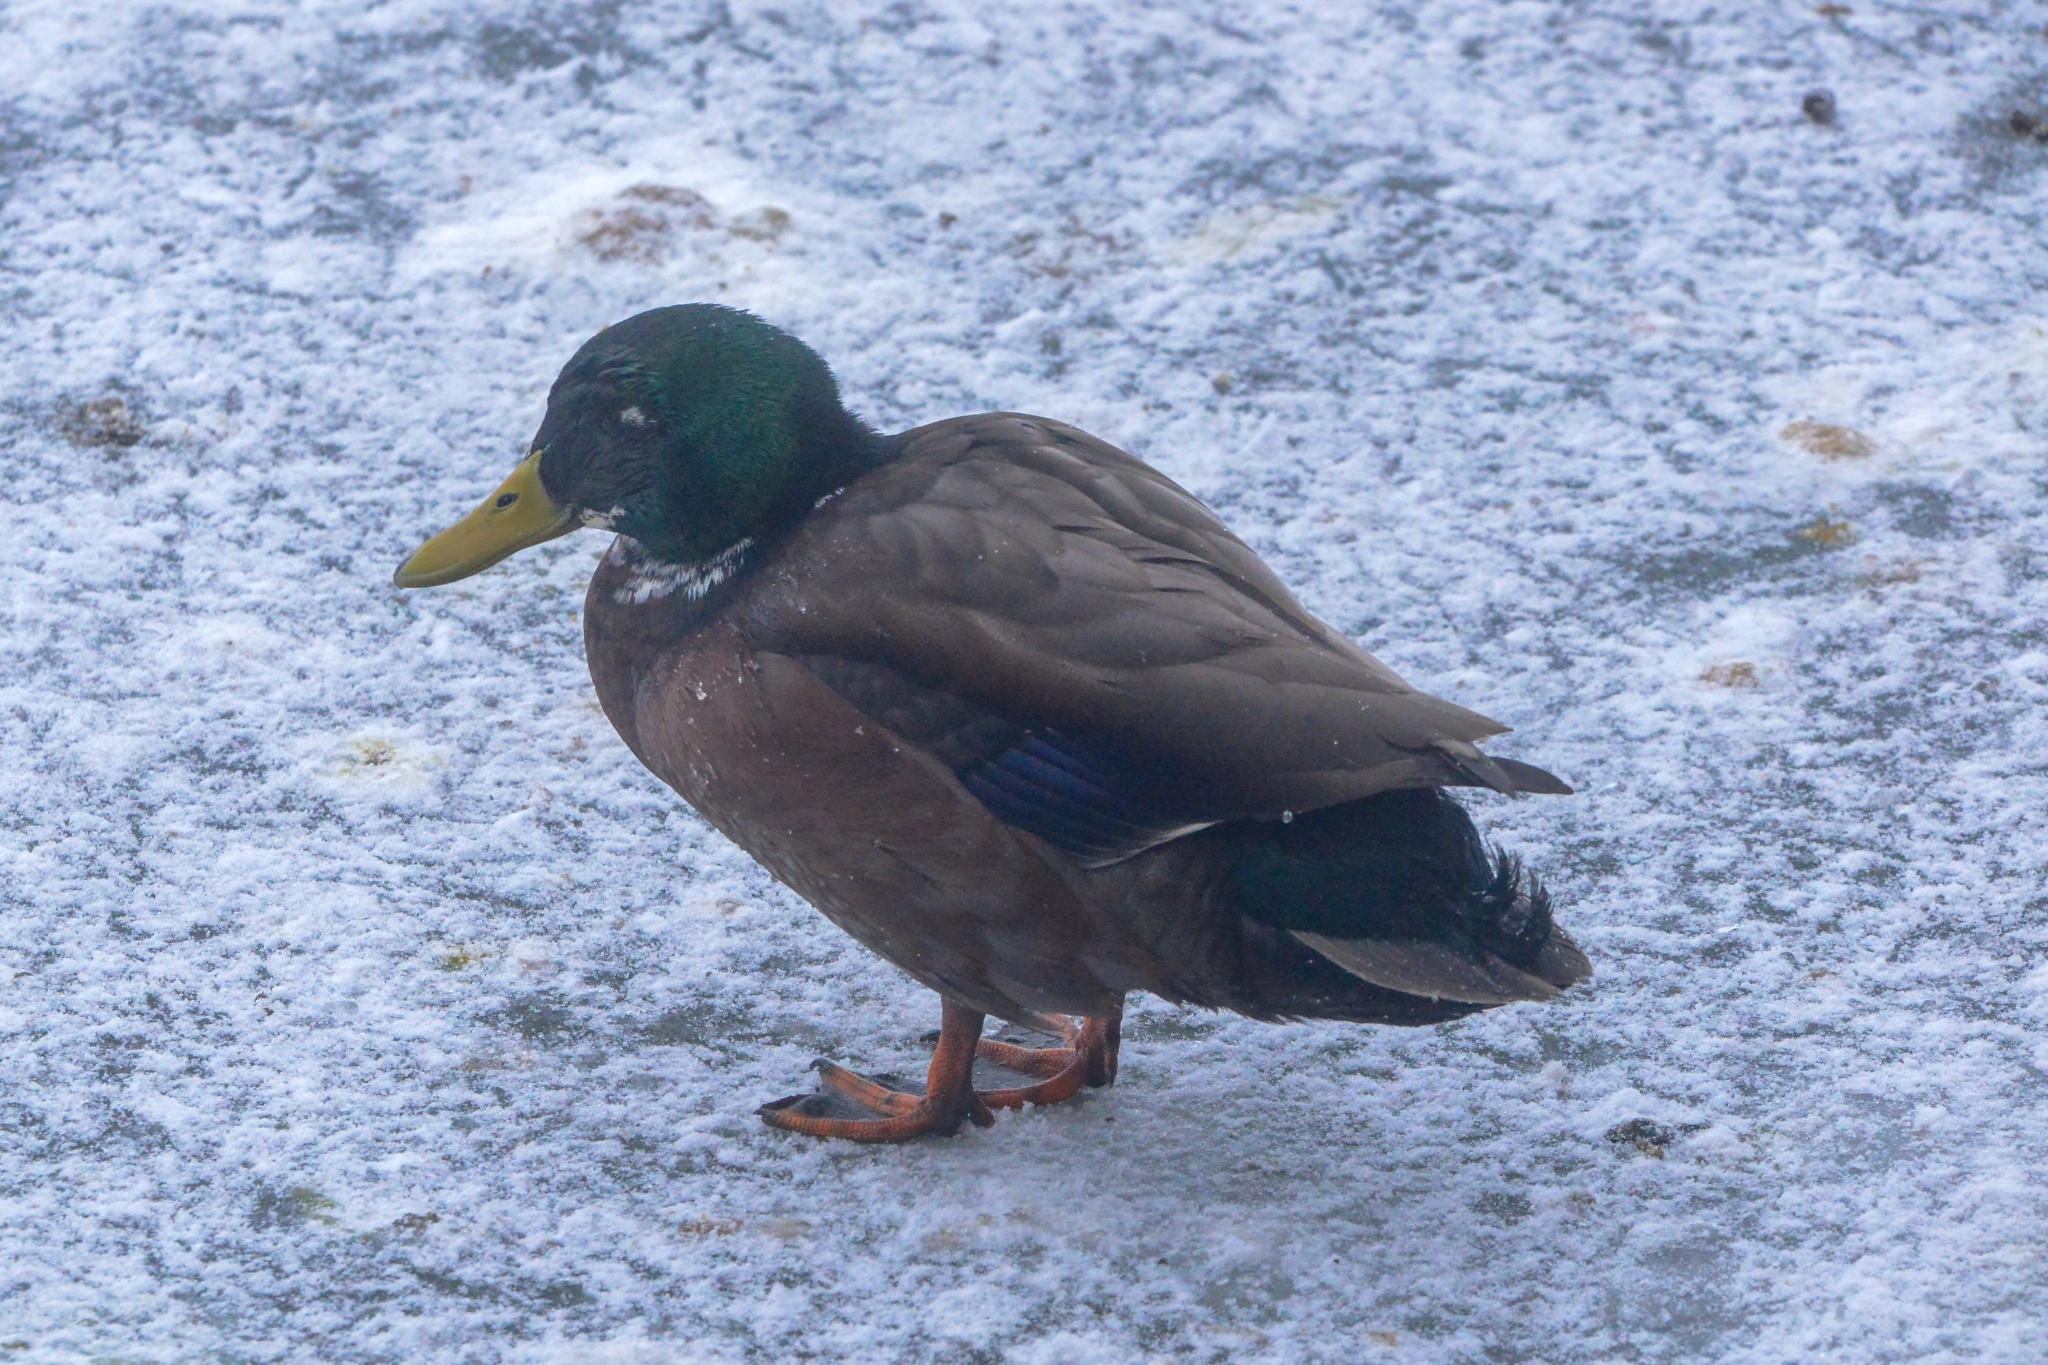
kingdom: Animalia
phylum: Chordata
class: Aves
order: Anseriformes
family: Anatidae
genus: Anas
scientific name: Anas platyrhynchos
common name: Mallard
